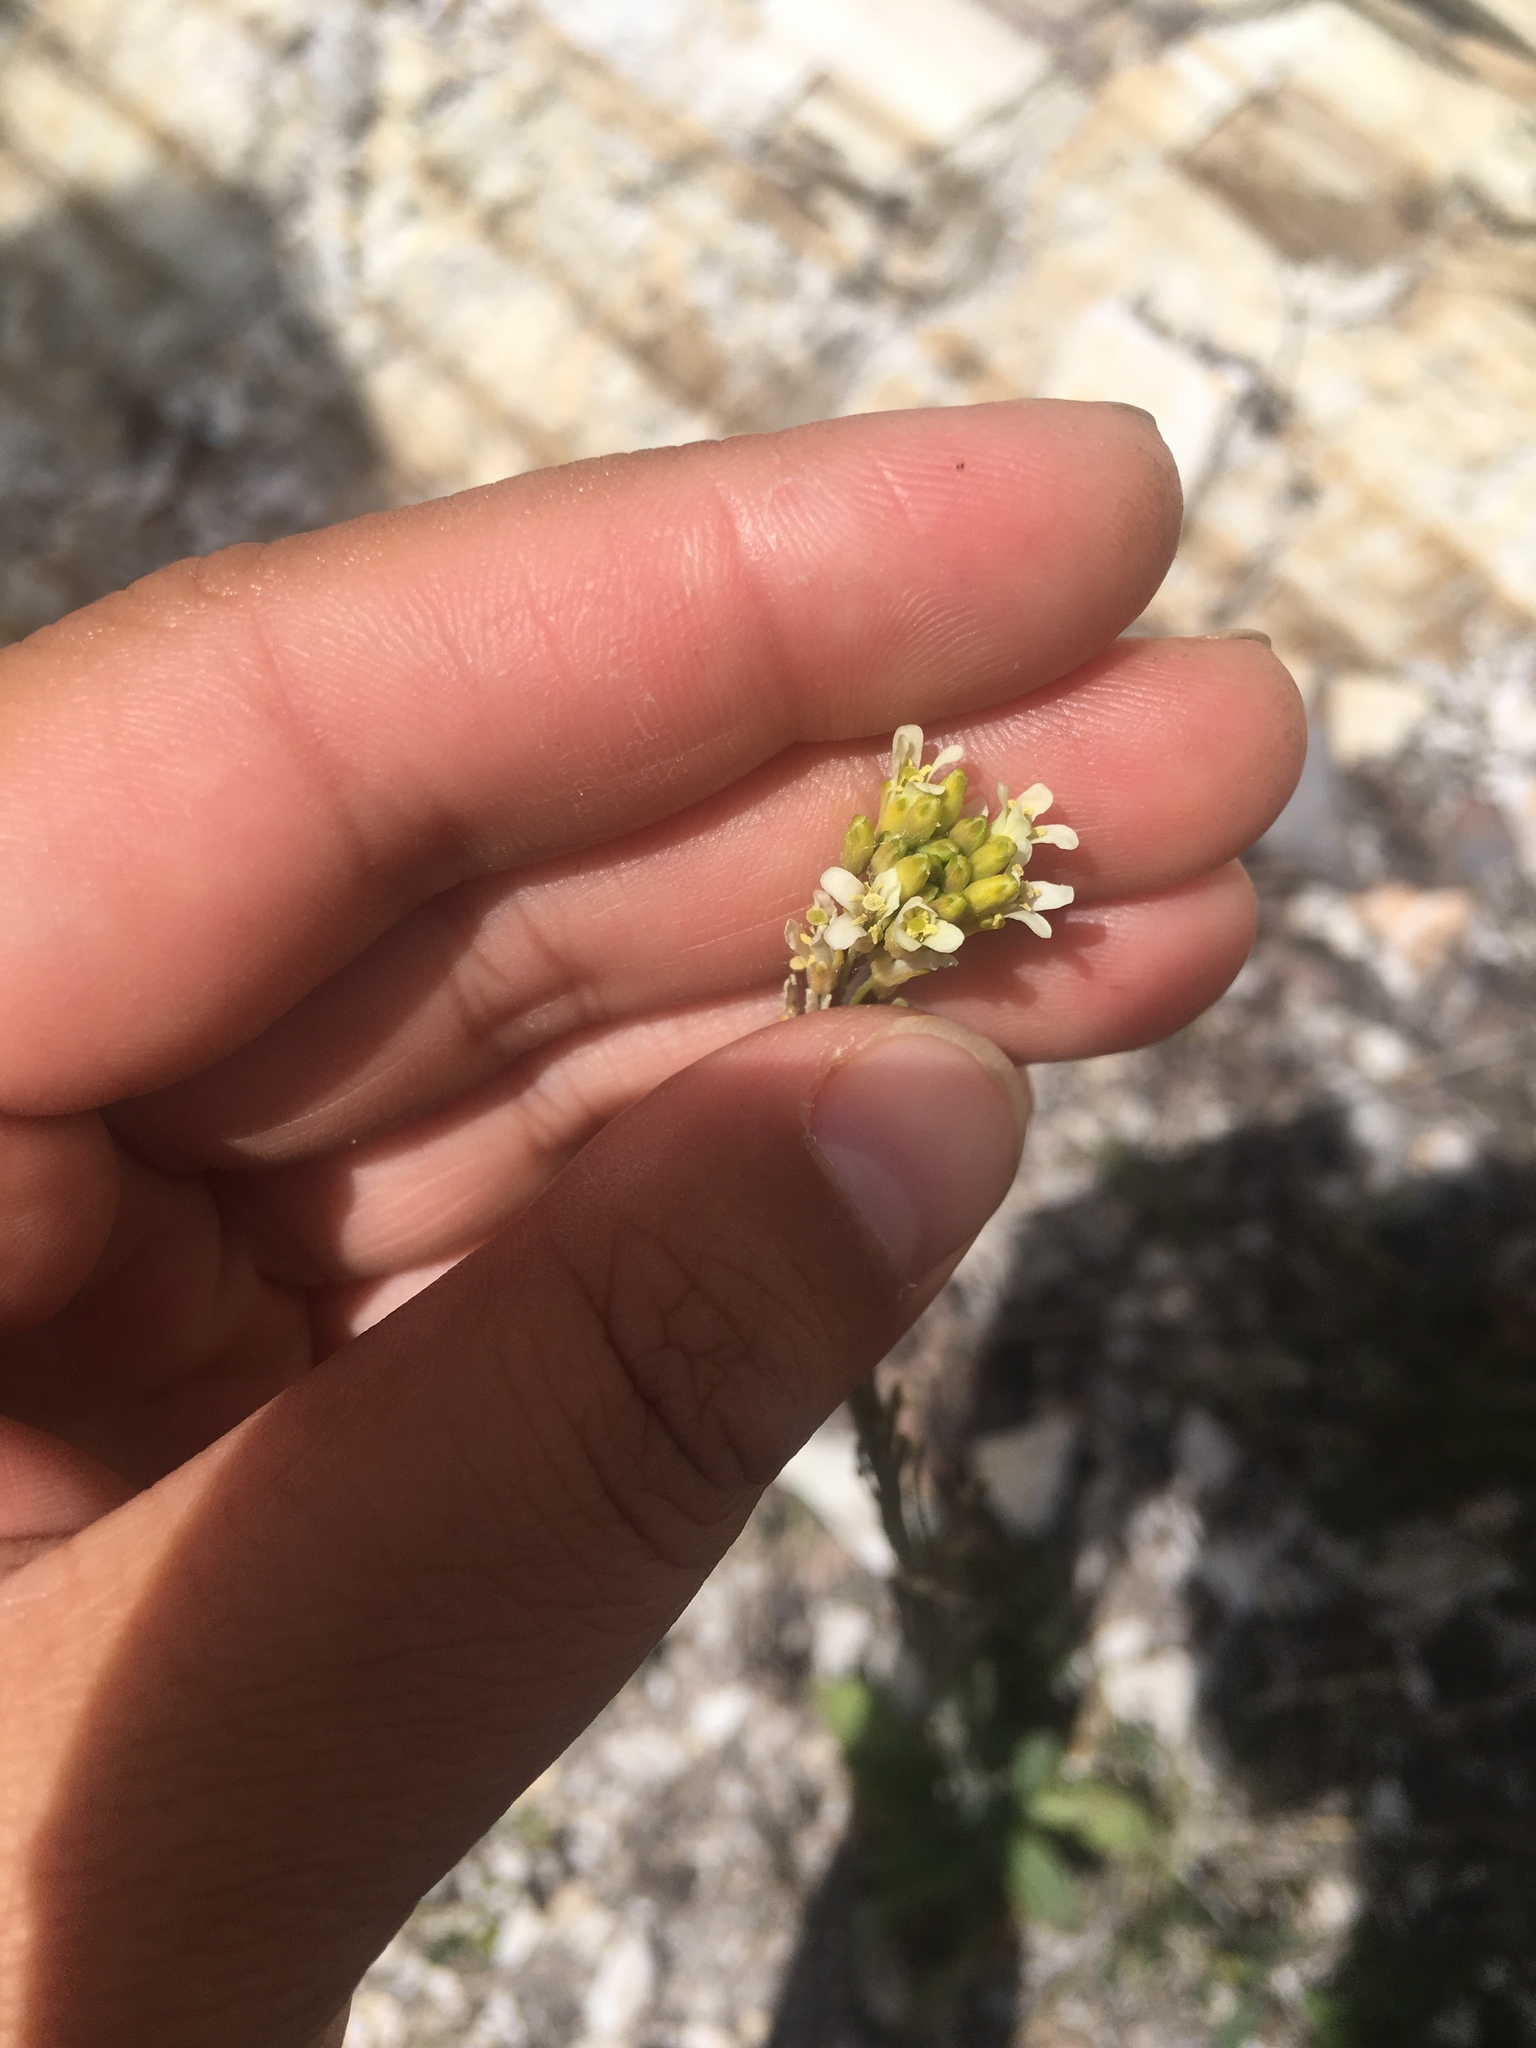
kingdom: Plantae
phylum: Tracheophyta
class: Magnoliopsida
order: Brassicales
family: Brassicaceae
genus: Turritis
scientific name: Turritis glabra
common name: Tower rockcress
